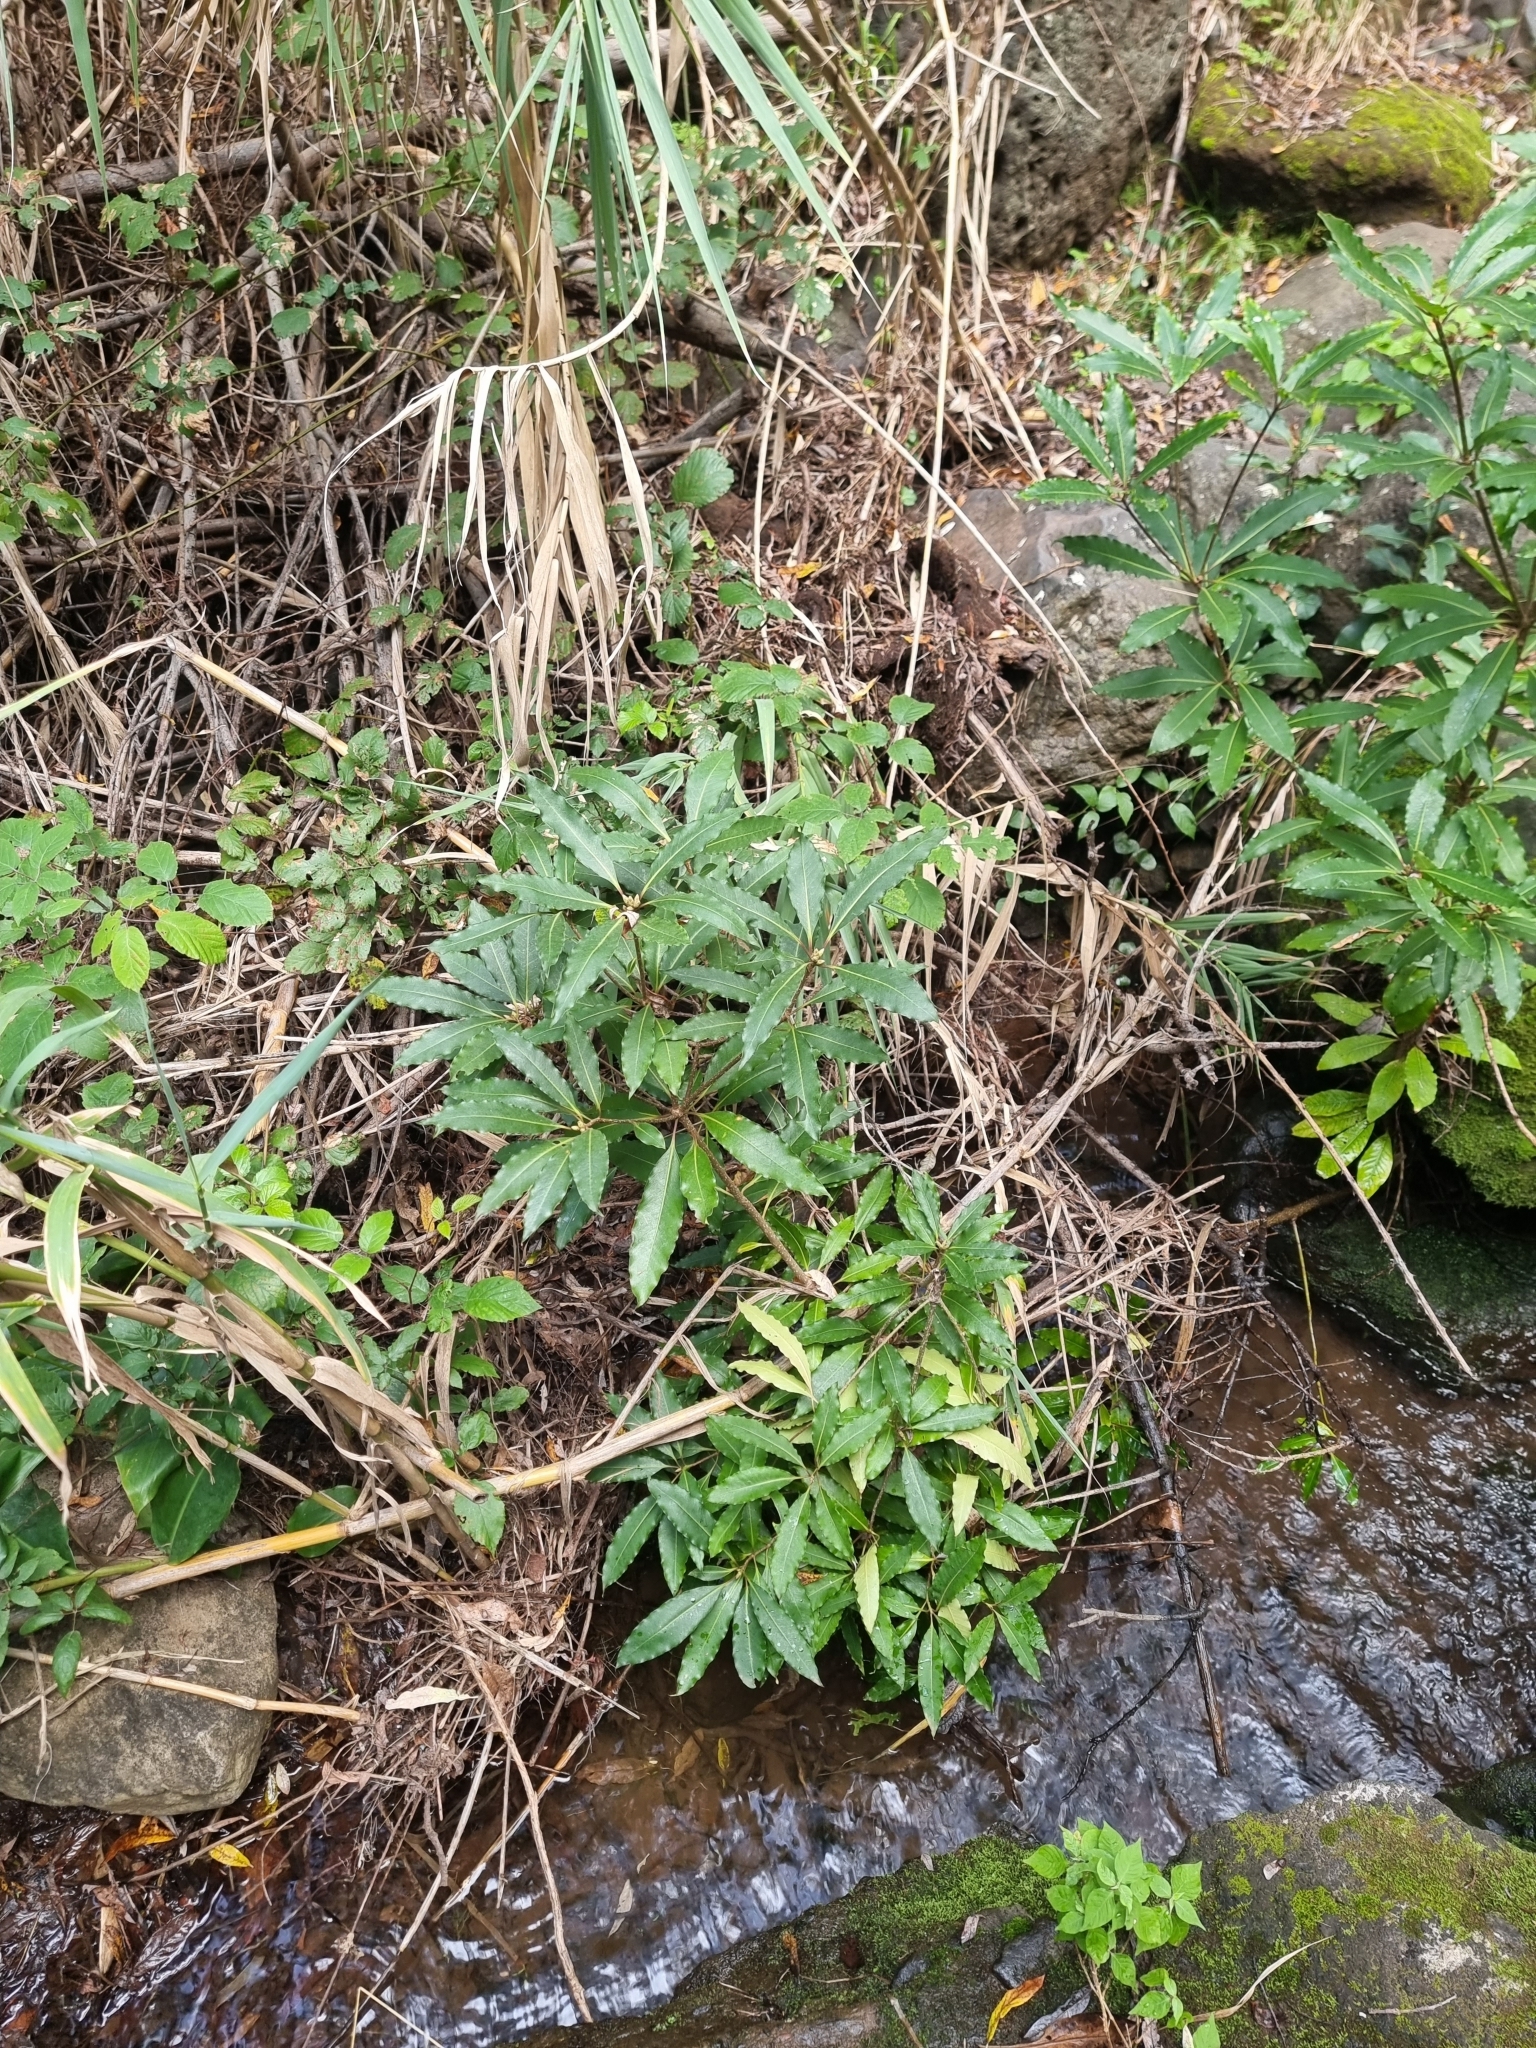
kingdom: Plantae
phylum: Tracheophyta
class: Magnoliopsida
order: Apiales
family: Pittosporaceae
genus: Pittosporum
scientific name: Pittosporum undulatum
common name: Australian cheesewood
